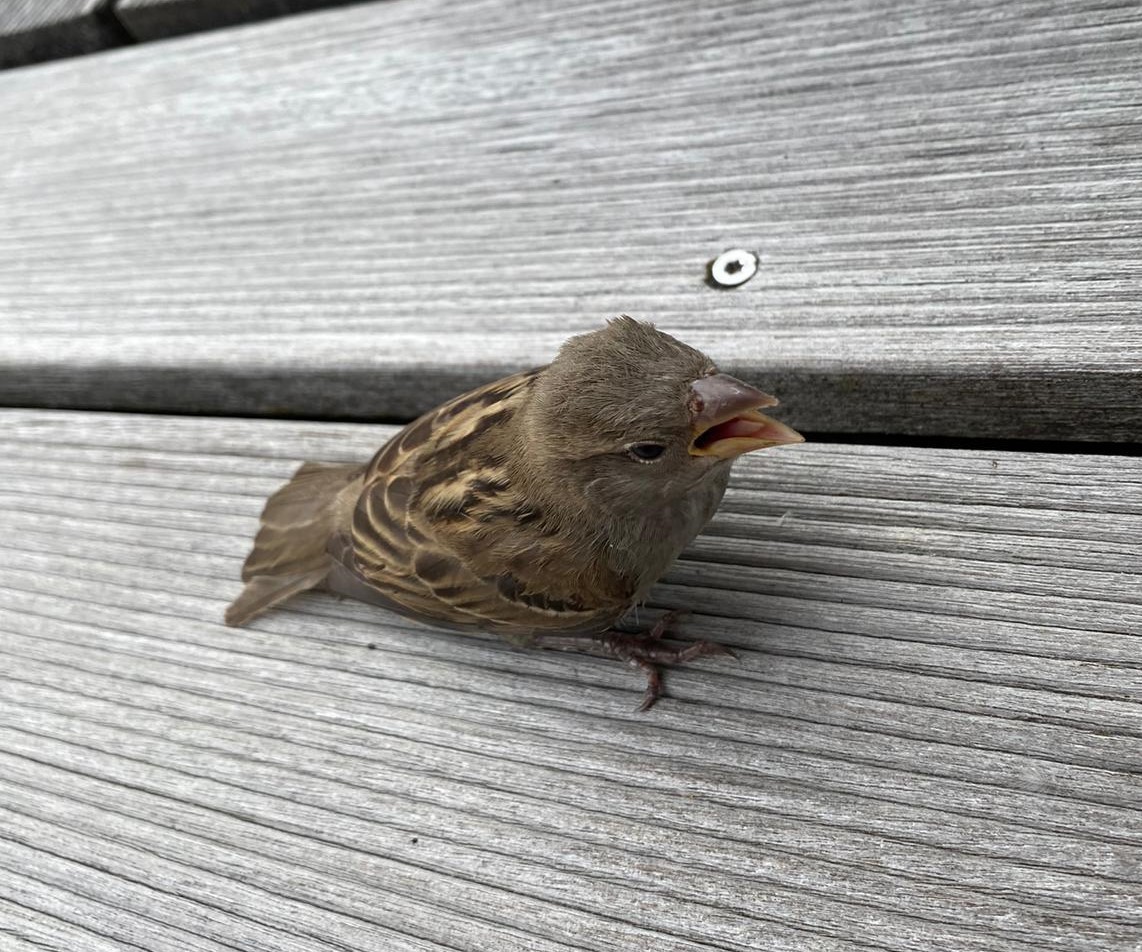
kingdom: Animalia
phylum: Chordata
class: Aves
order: Passeriformes
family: Passeridae
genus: Passer
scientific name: Passer domesticus
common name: House sparrow
